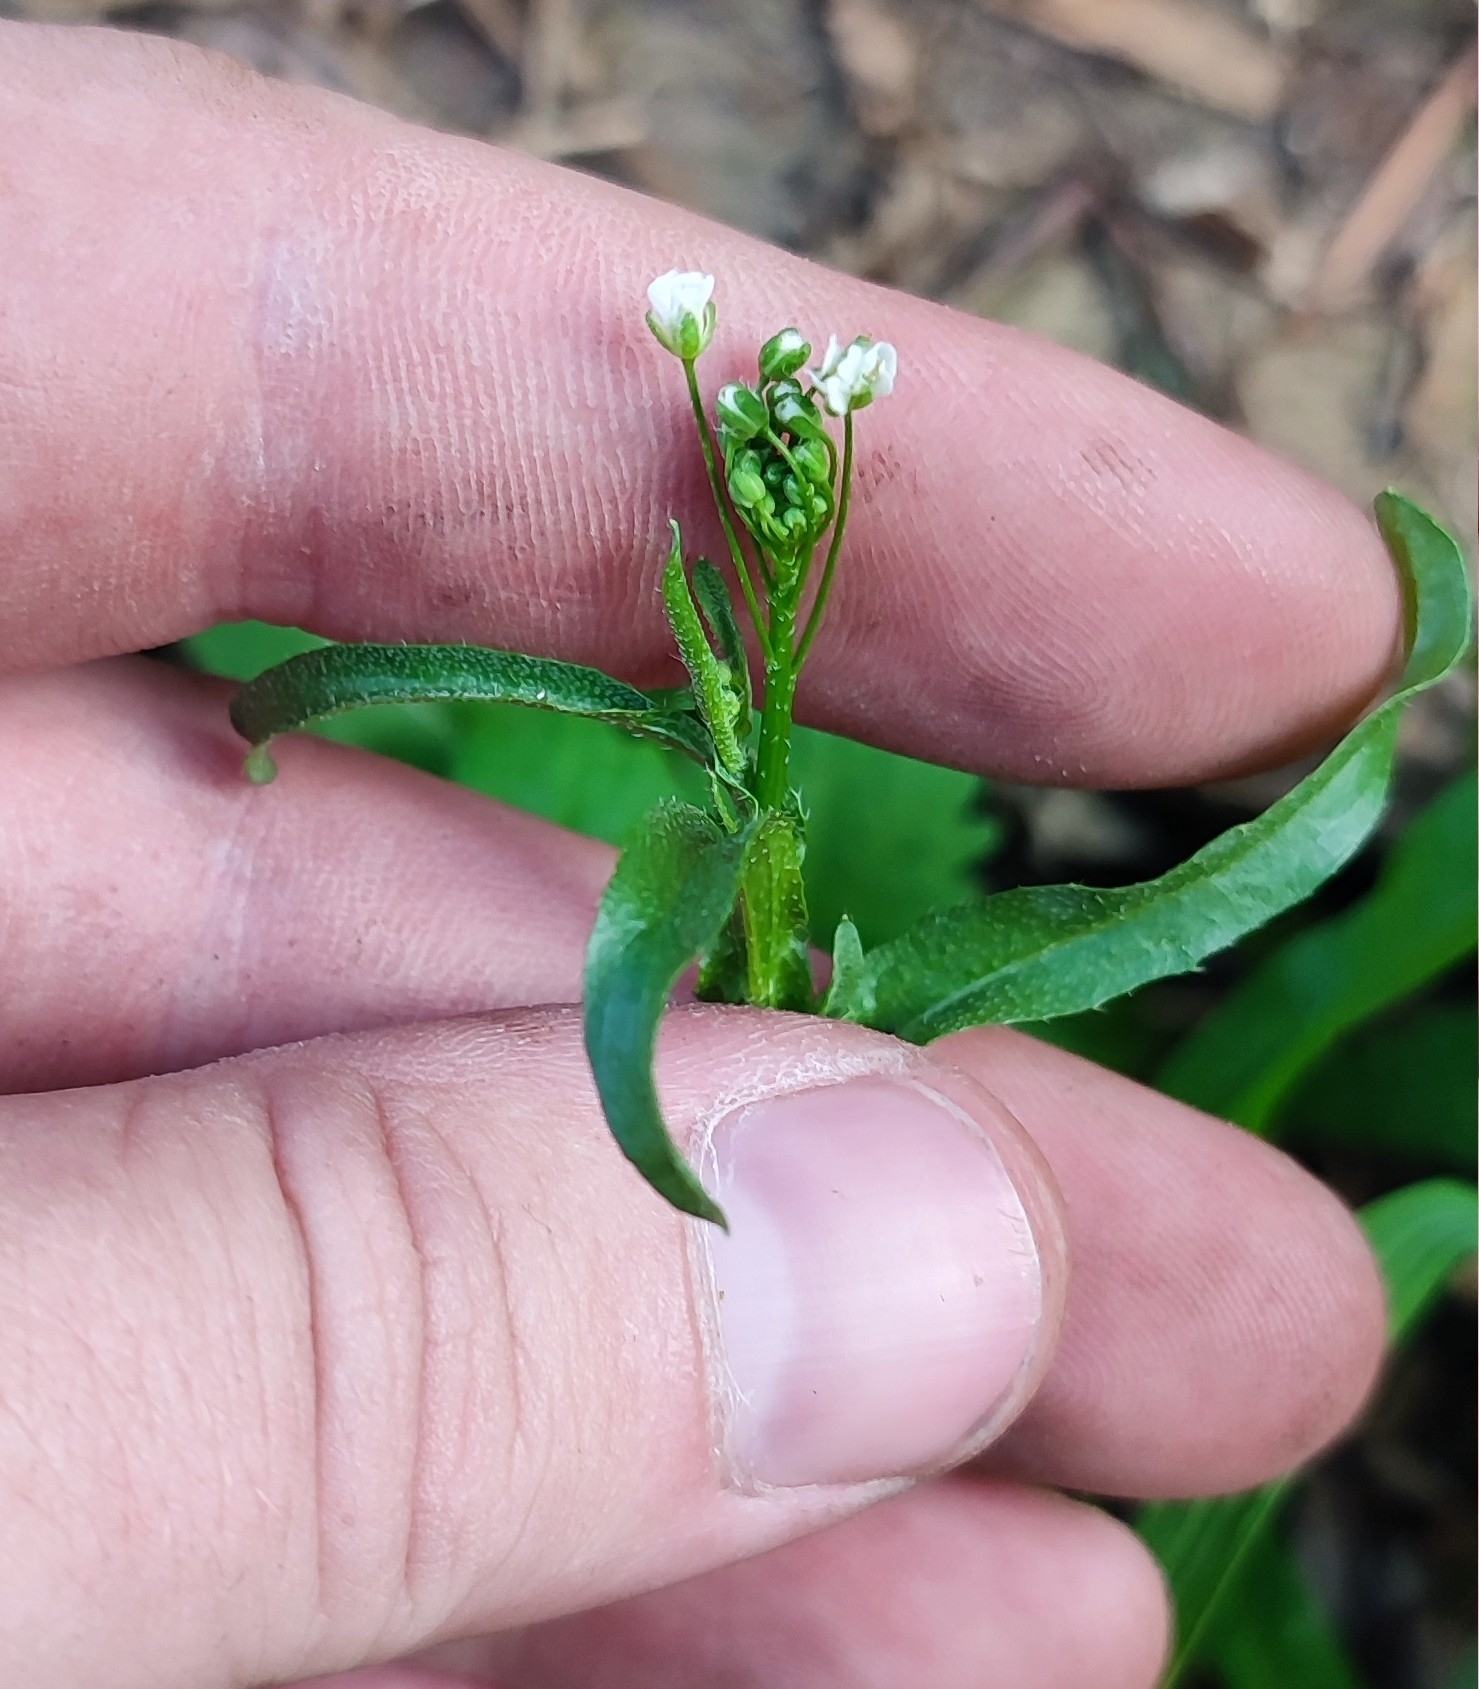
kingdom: Plantae
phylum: Tracheophyta
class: Magnoliopsida
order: Brassicales
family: Brassicaceae
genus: Capsella
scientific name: Capsella bursa-pastoris
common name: Shepherd's purse
